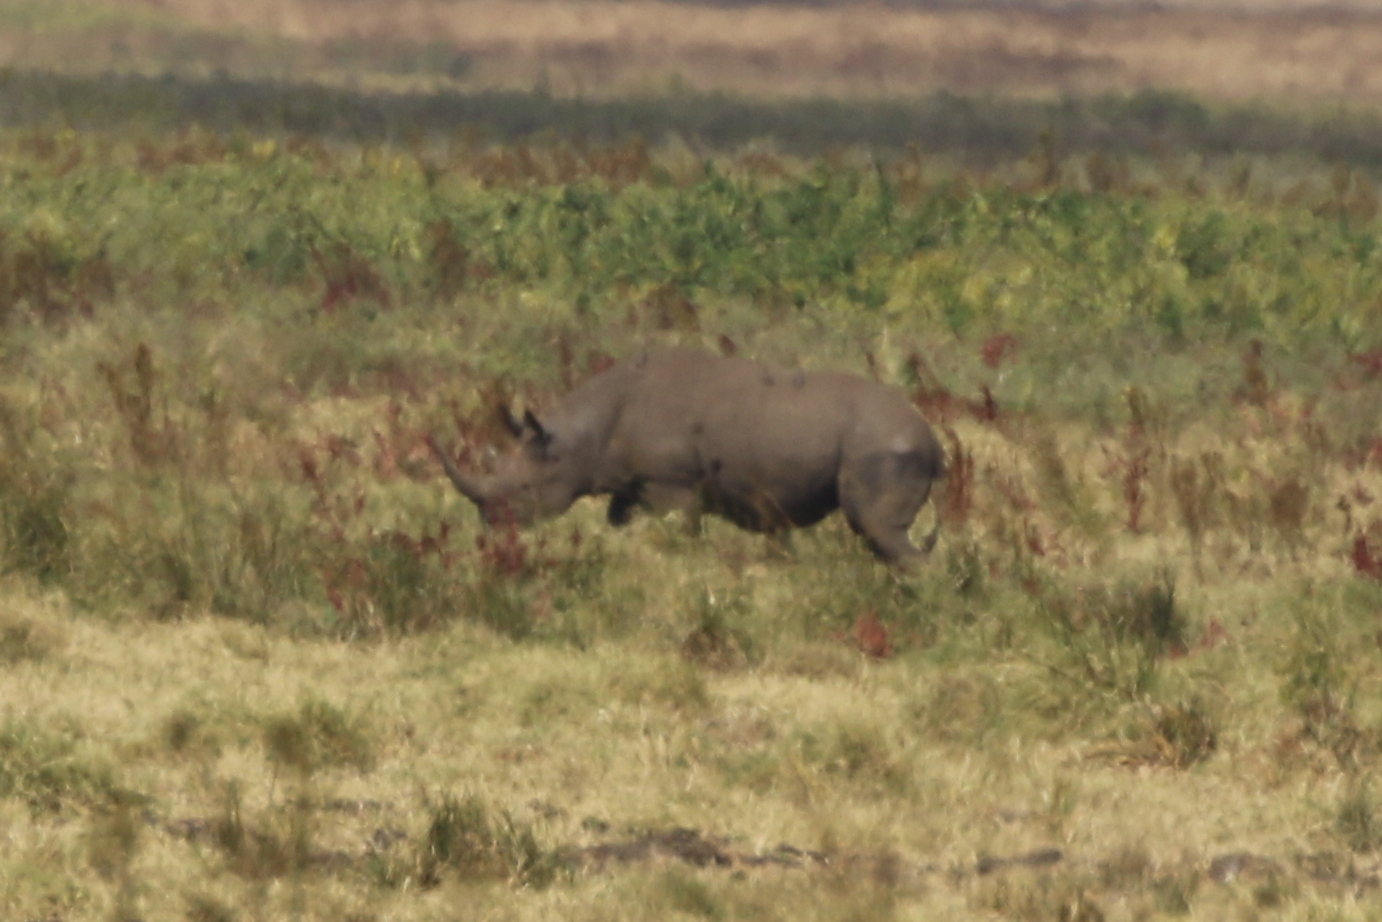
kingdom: Animalia
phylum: Chordata
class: Mammalia
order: Perissodactyla
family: Rhinocerotidae
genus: Diceros
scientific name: Diceros bicornis
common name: Black rhinoceros
